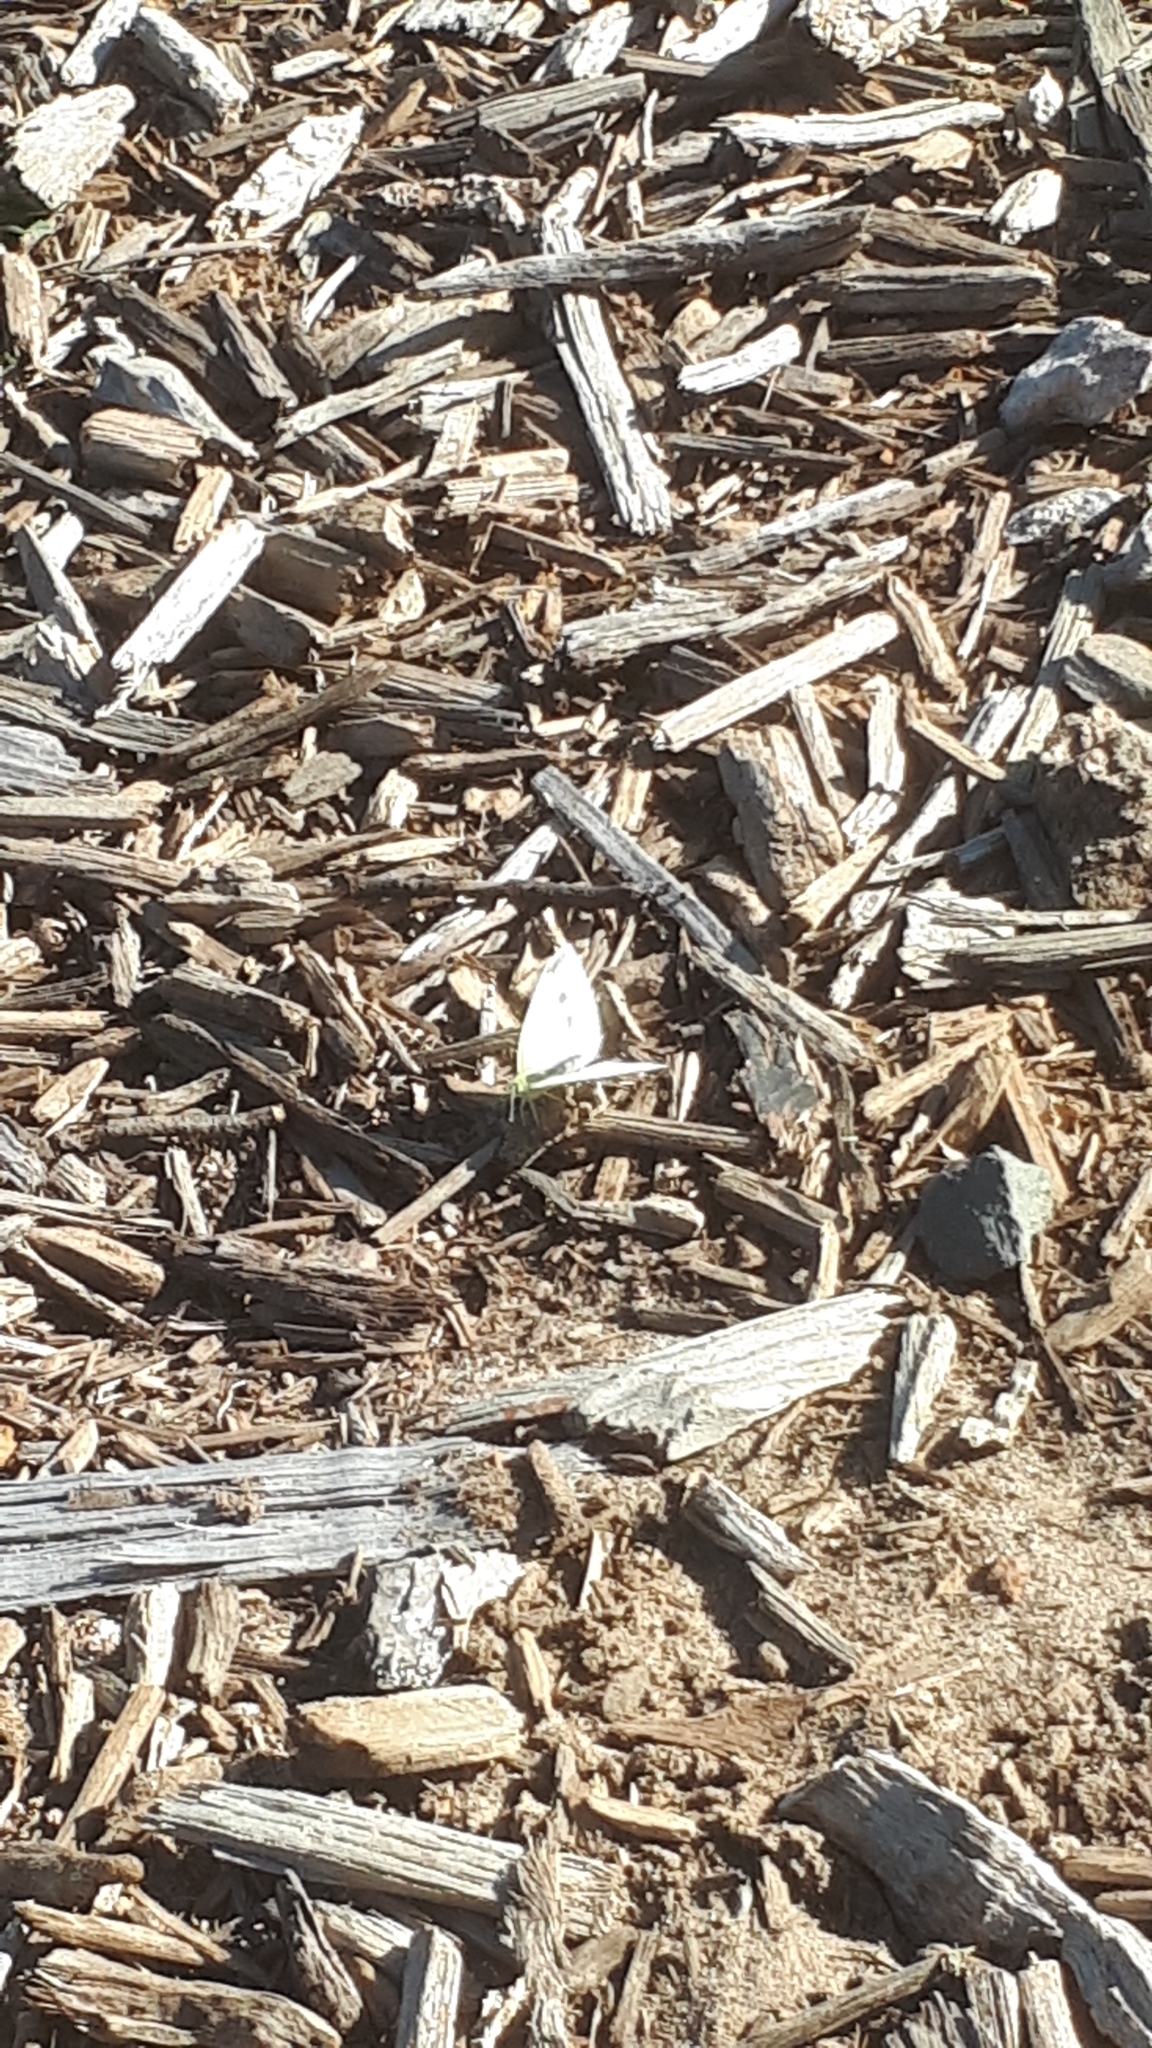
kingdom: Animalia
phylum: Arthropoda
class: Insecta
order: Lepidoptera
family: Pieridae
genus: Pieris
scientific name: Pieris rapae
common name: Small white
